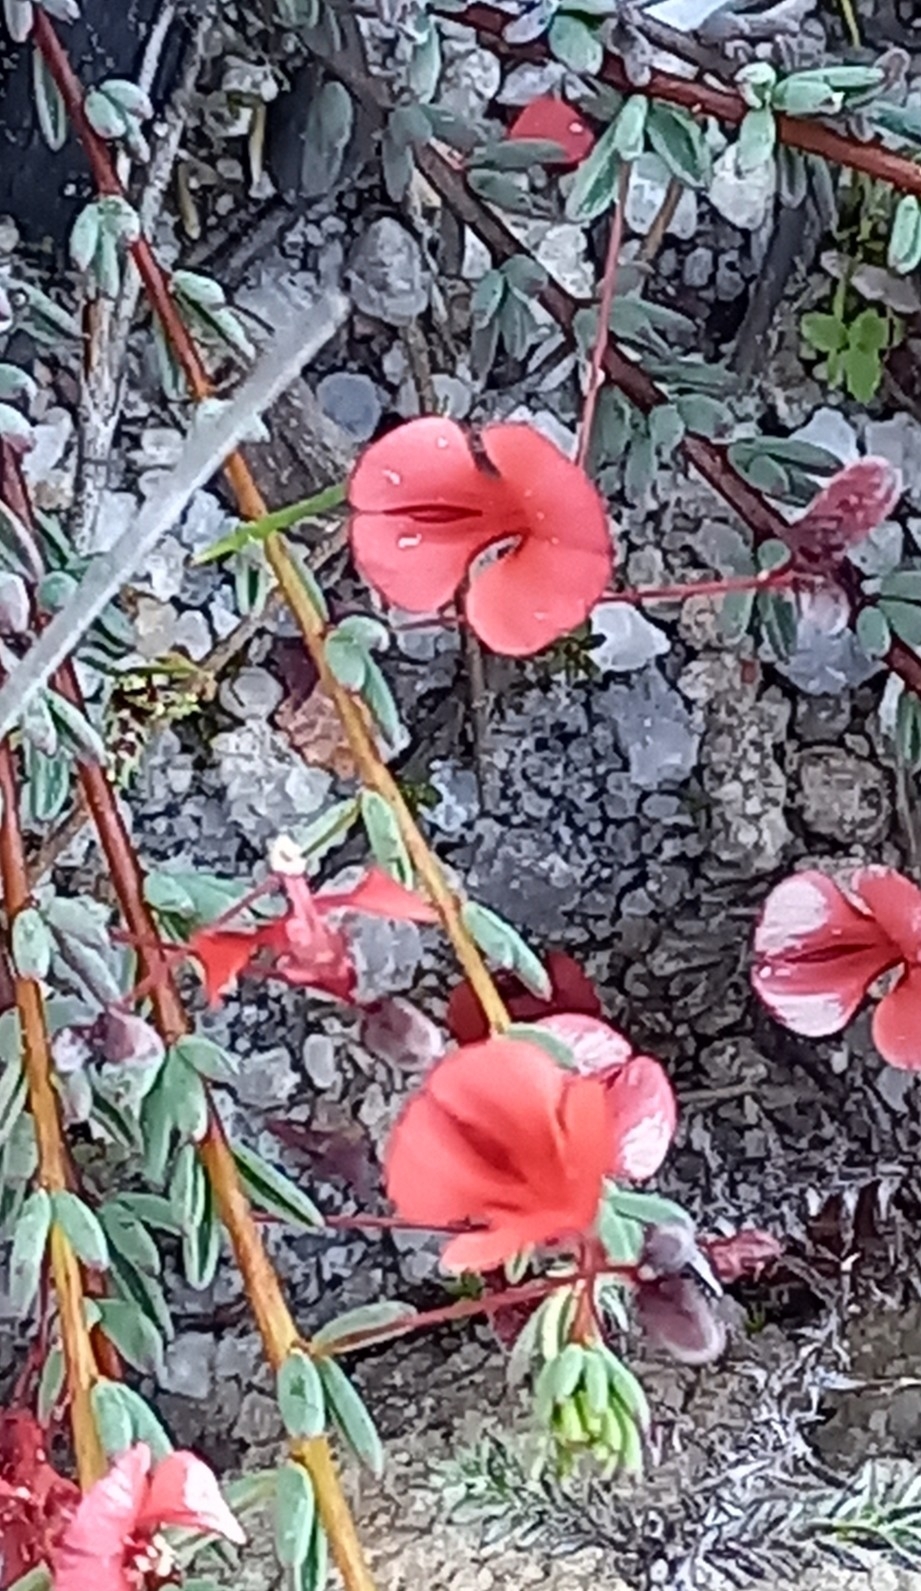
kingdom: Plantae
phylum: Tracheophyta
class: Magnoliopsida
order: Fabales
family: Fabaceae
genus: Indigofera
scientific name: Indigofera filicaulis
